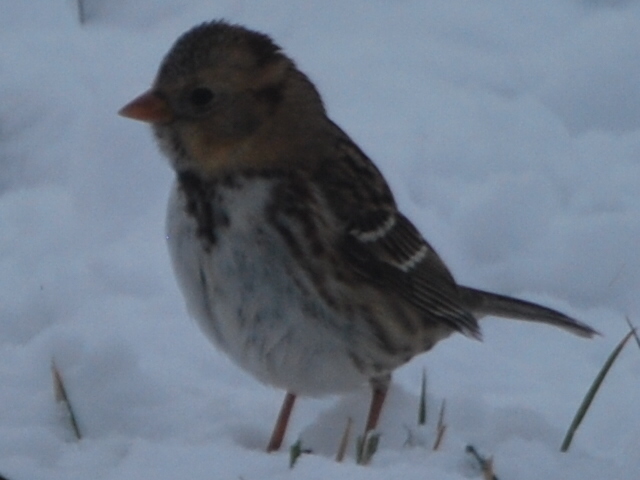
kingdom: Animalia
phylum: Chordata
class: Aves
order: Passeriformes
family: Passerellidae
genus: Zonotrichia
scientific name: Zonotrichia querula
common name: Harris's sparrow
